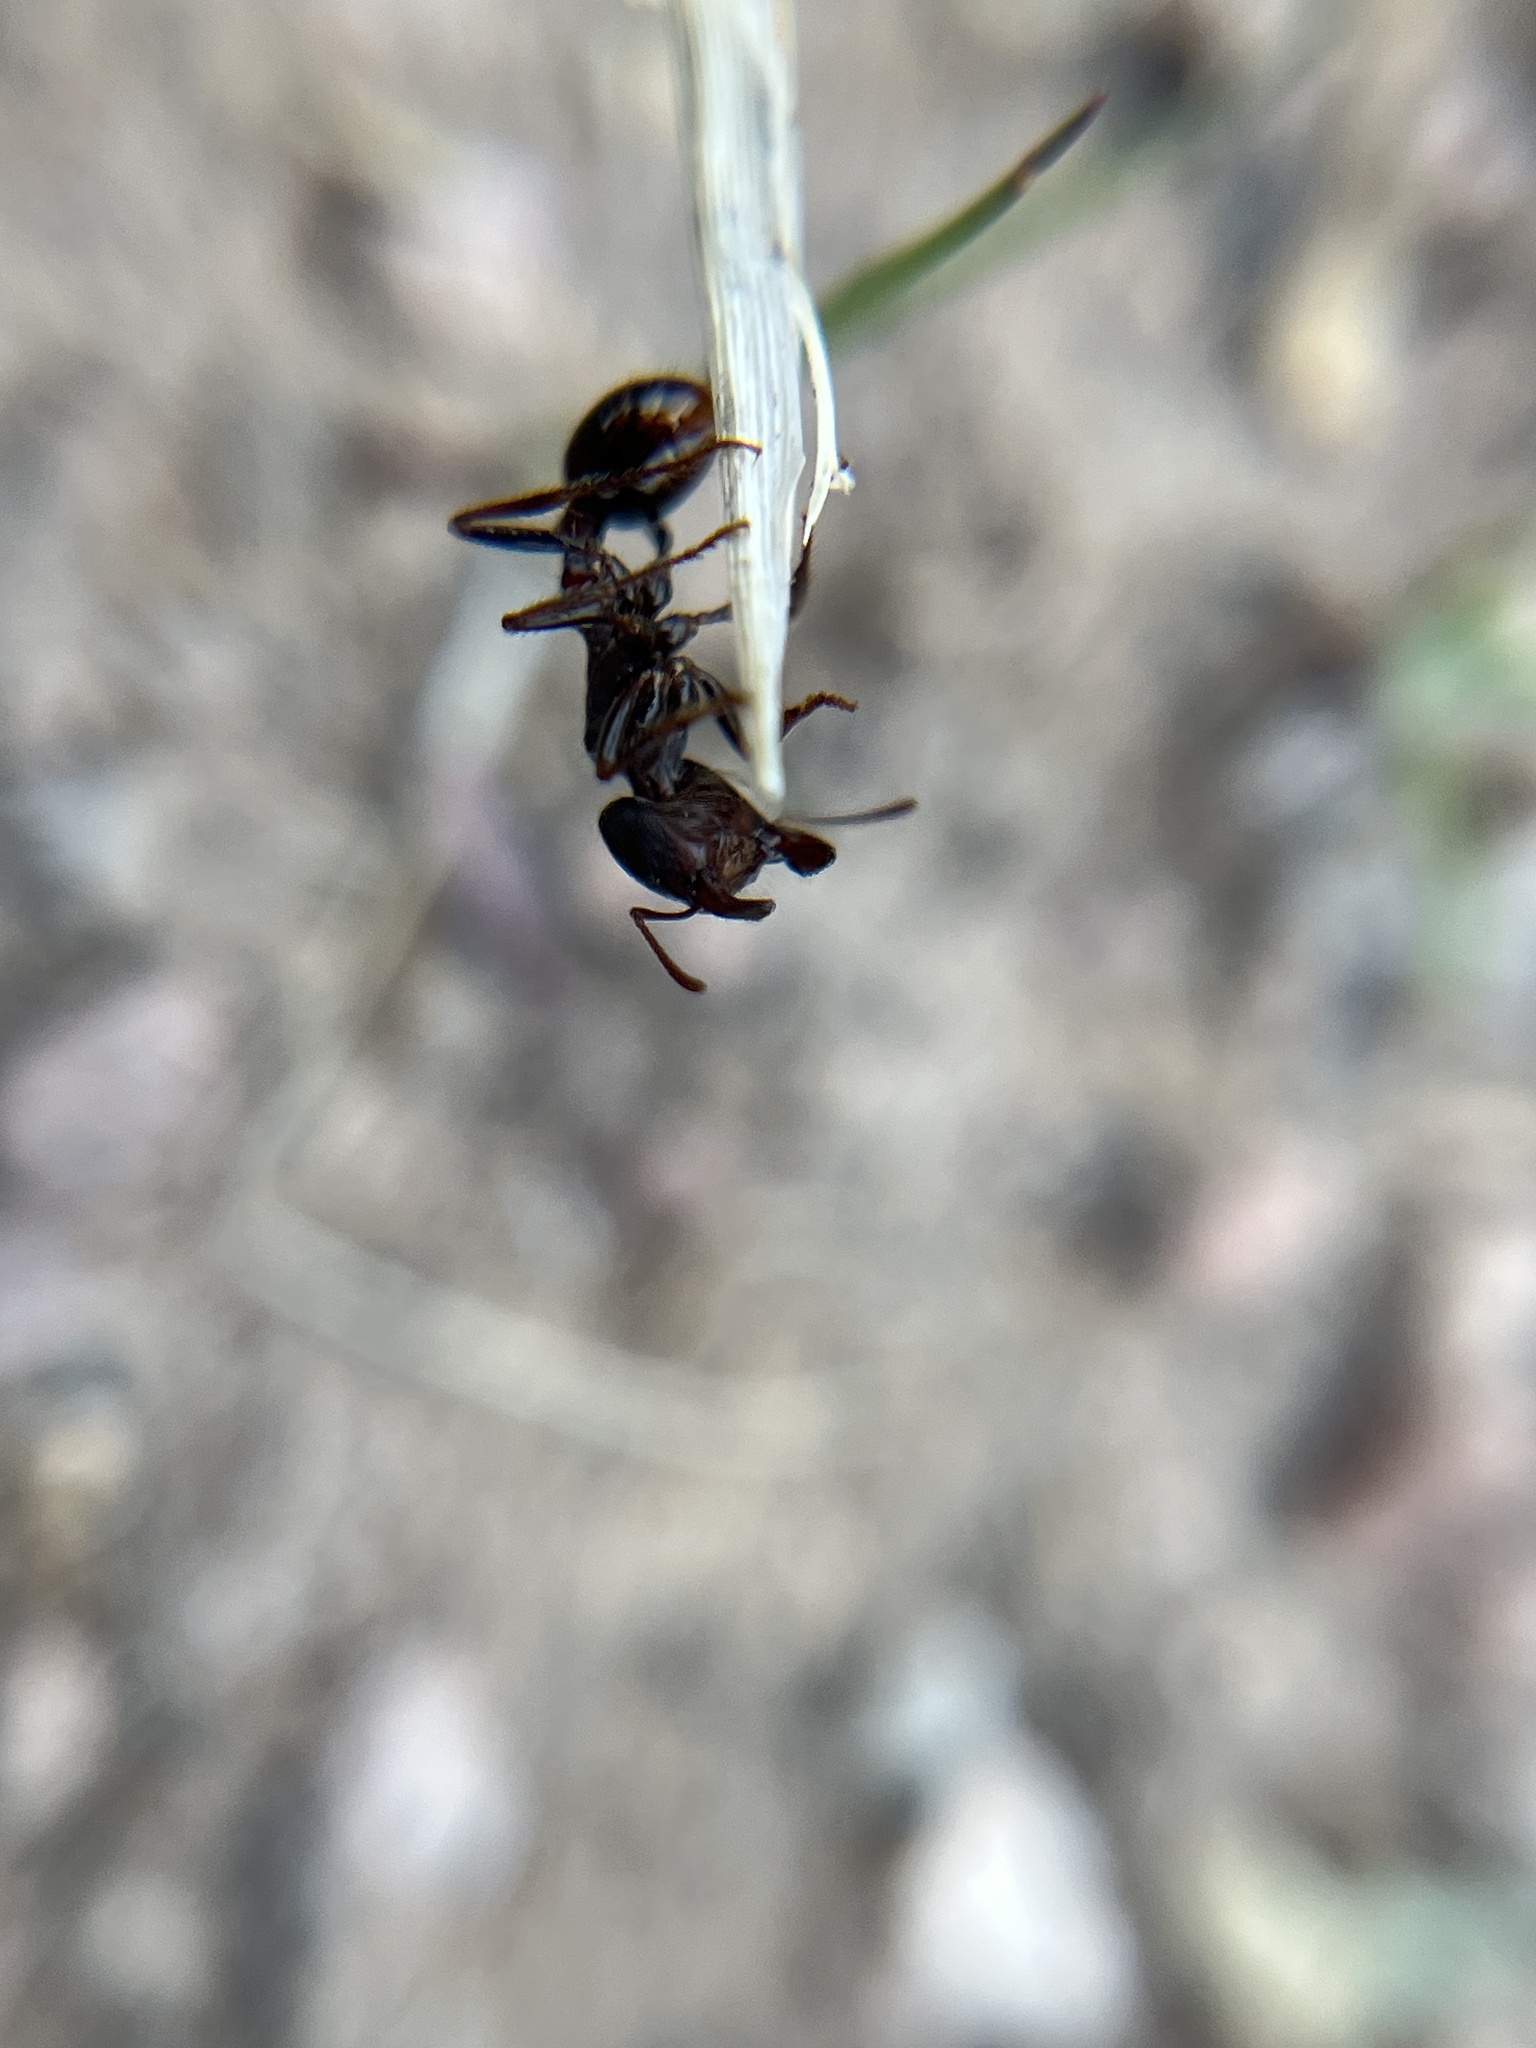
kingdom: Animalia
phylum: Arthropoda
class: Insecta
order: Hymenoptera
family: Formicidae
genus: Pogonomyrmex
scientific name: Pogonomyrmex rugosus
